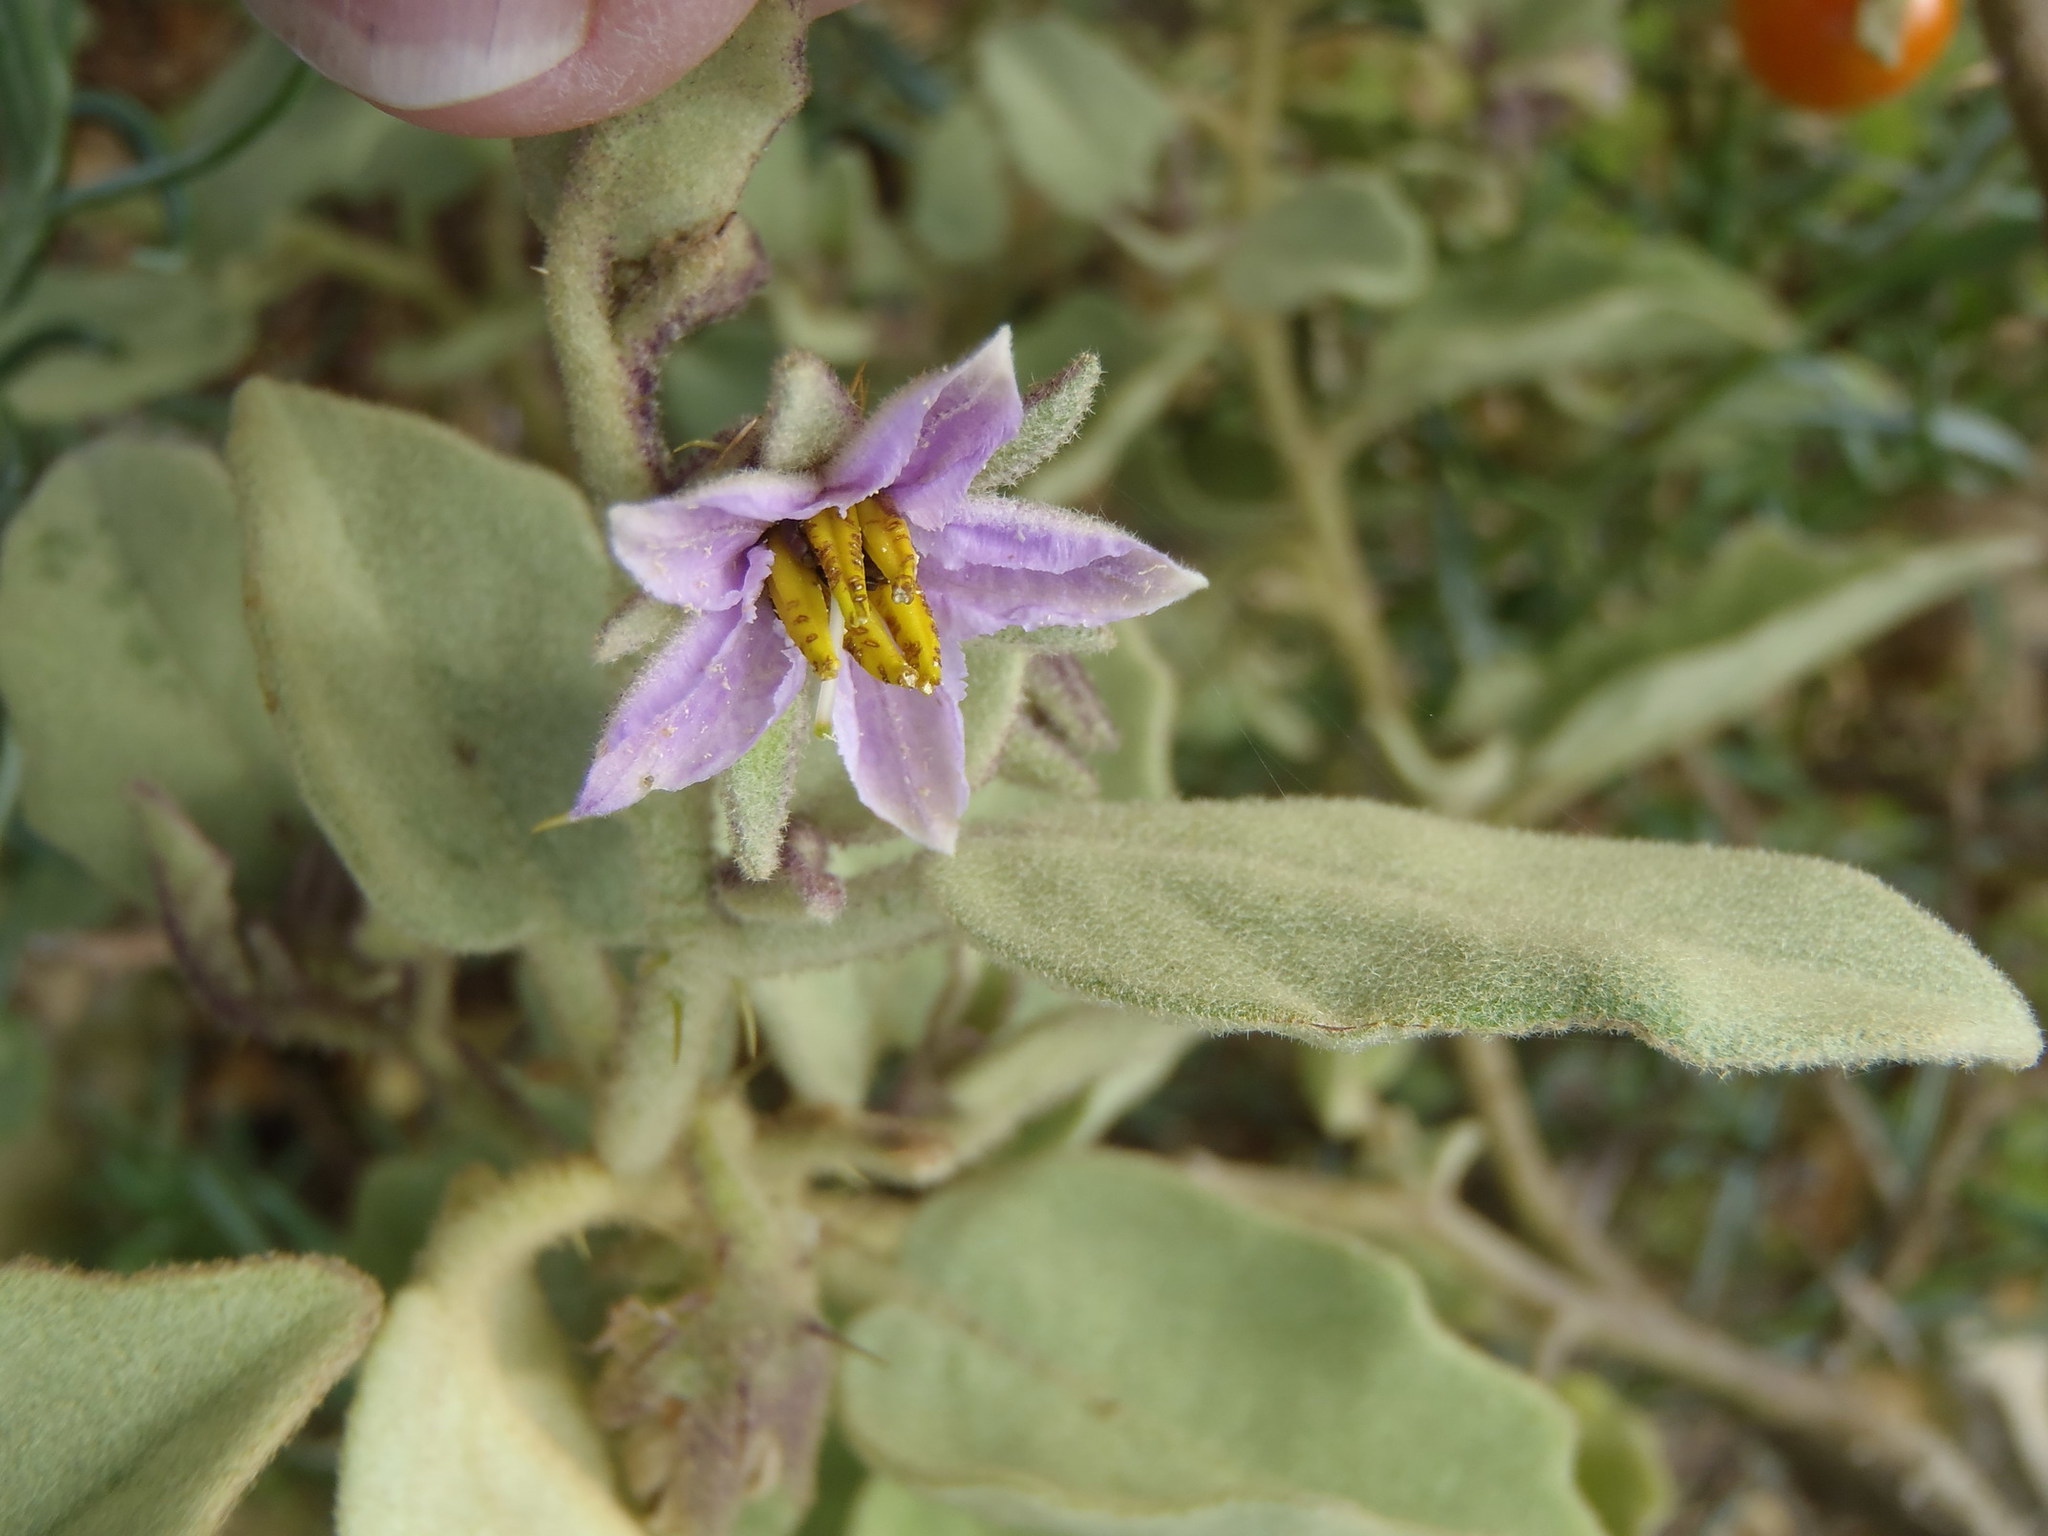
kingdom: Plantae
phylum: Tracheophyta
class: Magnoliopsida
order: Solanales
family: Solanaceae
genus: Solanum
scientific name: Solanum tomentosum
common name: Wild aubergine
